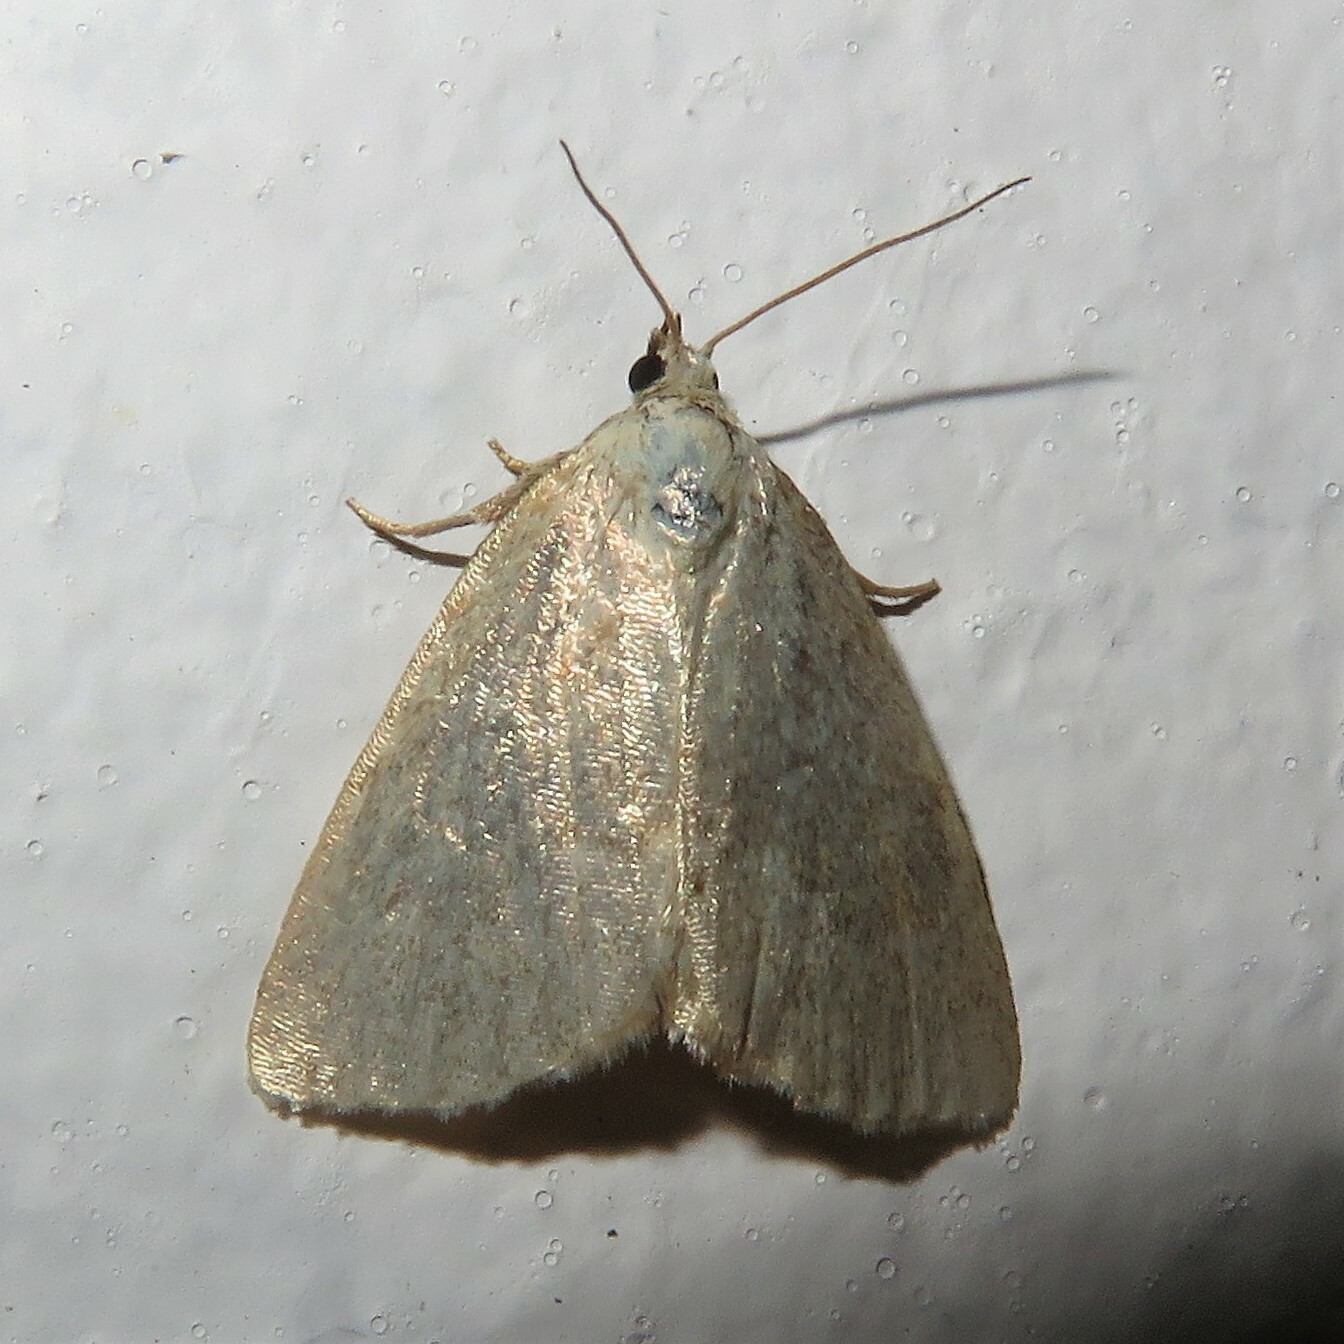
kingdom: Animalia
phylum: Arthropoda
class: Insecta
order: Lepidoptera
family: Noctuidae
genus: Protodeltote
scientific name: Protodeltote albidula
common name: Pale glyph
